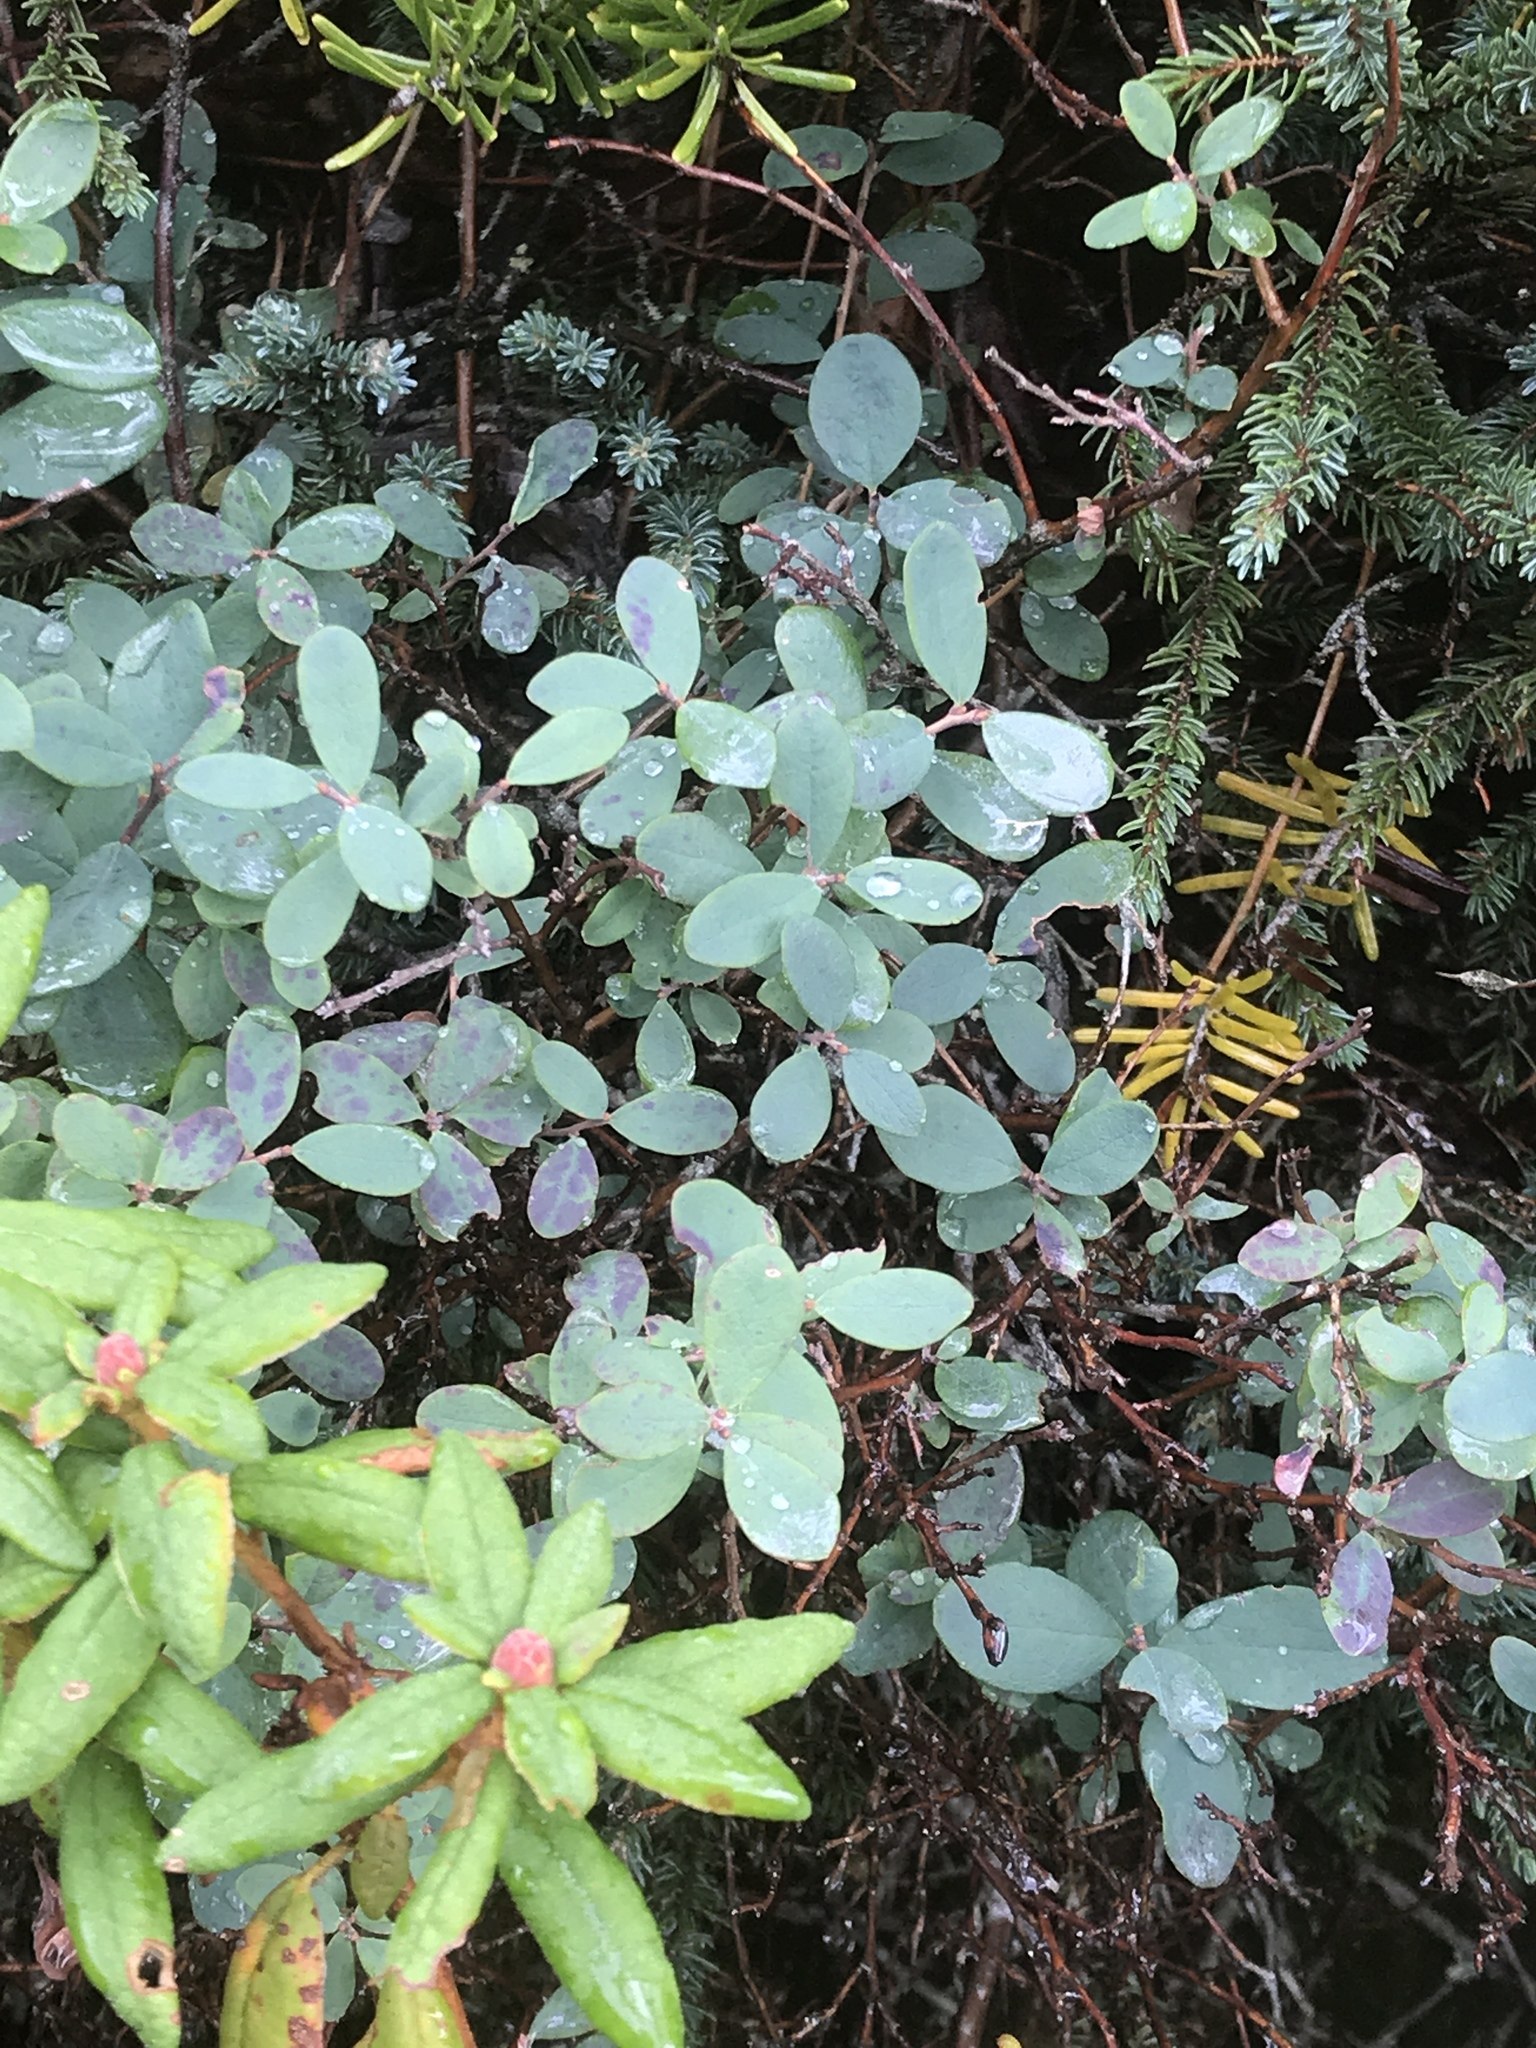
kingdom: Plantae
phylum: Tracheophyta
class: Magnoliopsida
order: Ericales
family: Ericaceae
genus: Vaccinium
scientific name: Vaccinium uliginosum
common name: Bog bilberry
